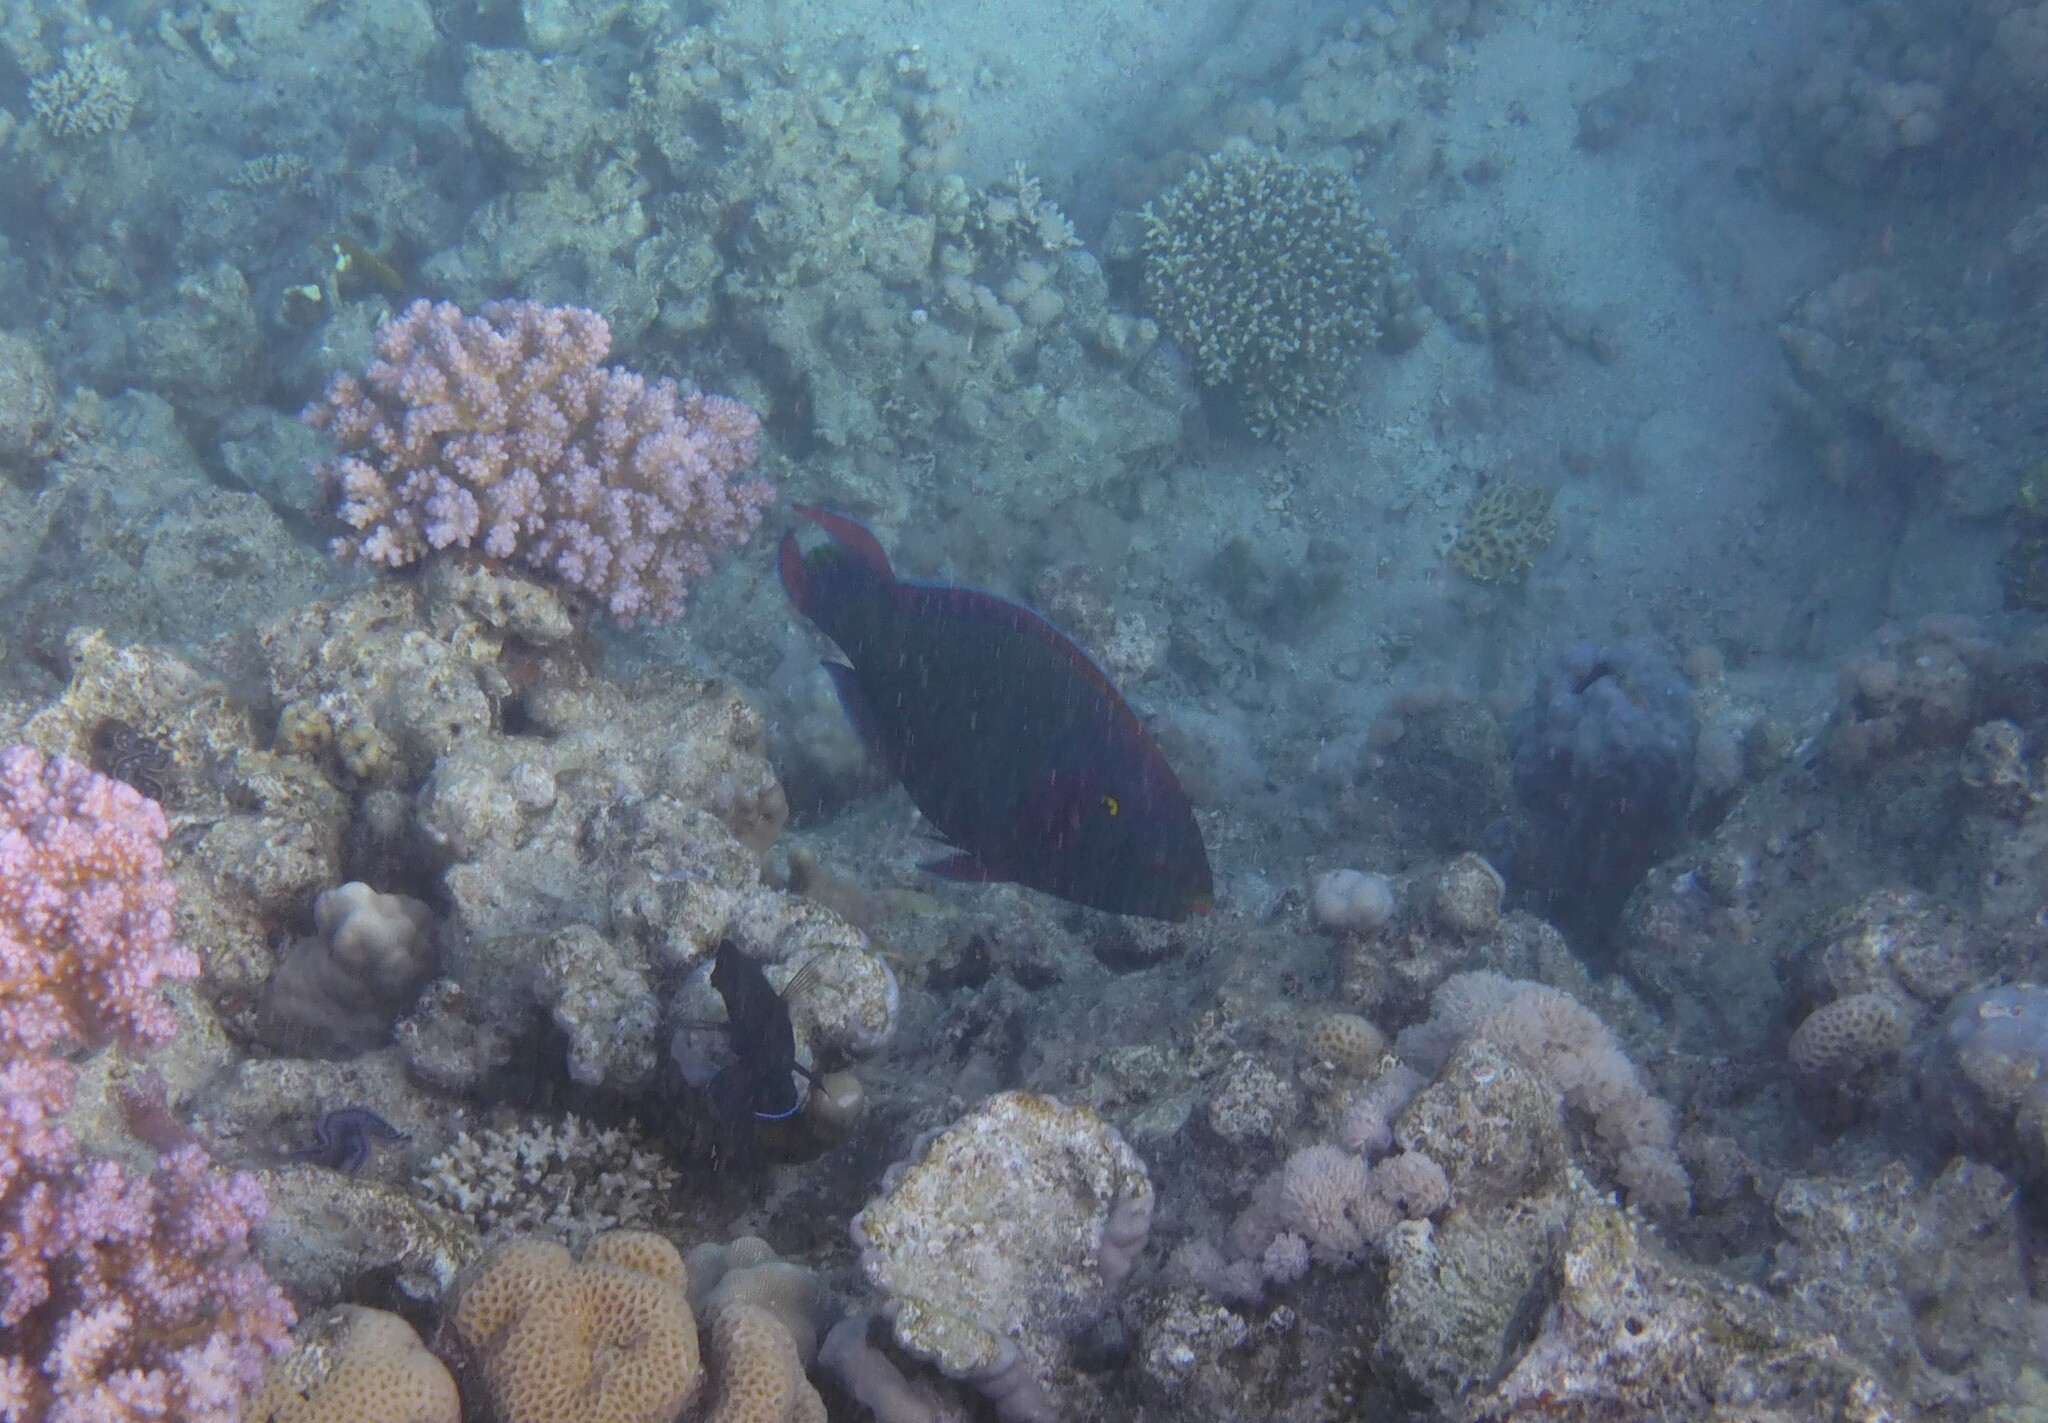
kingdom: Animalia
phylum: Chordata
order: Perciformes
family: Scaridae
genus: Scarus
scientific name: Scarus niger
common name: Dusky parrotfish
